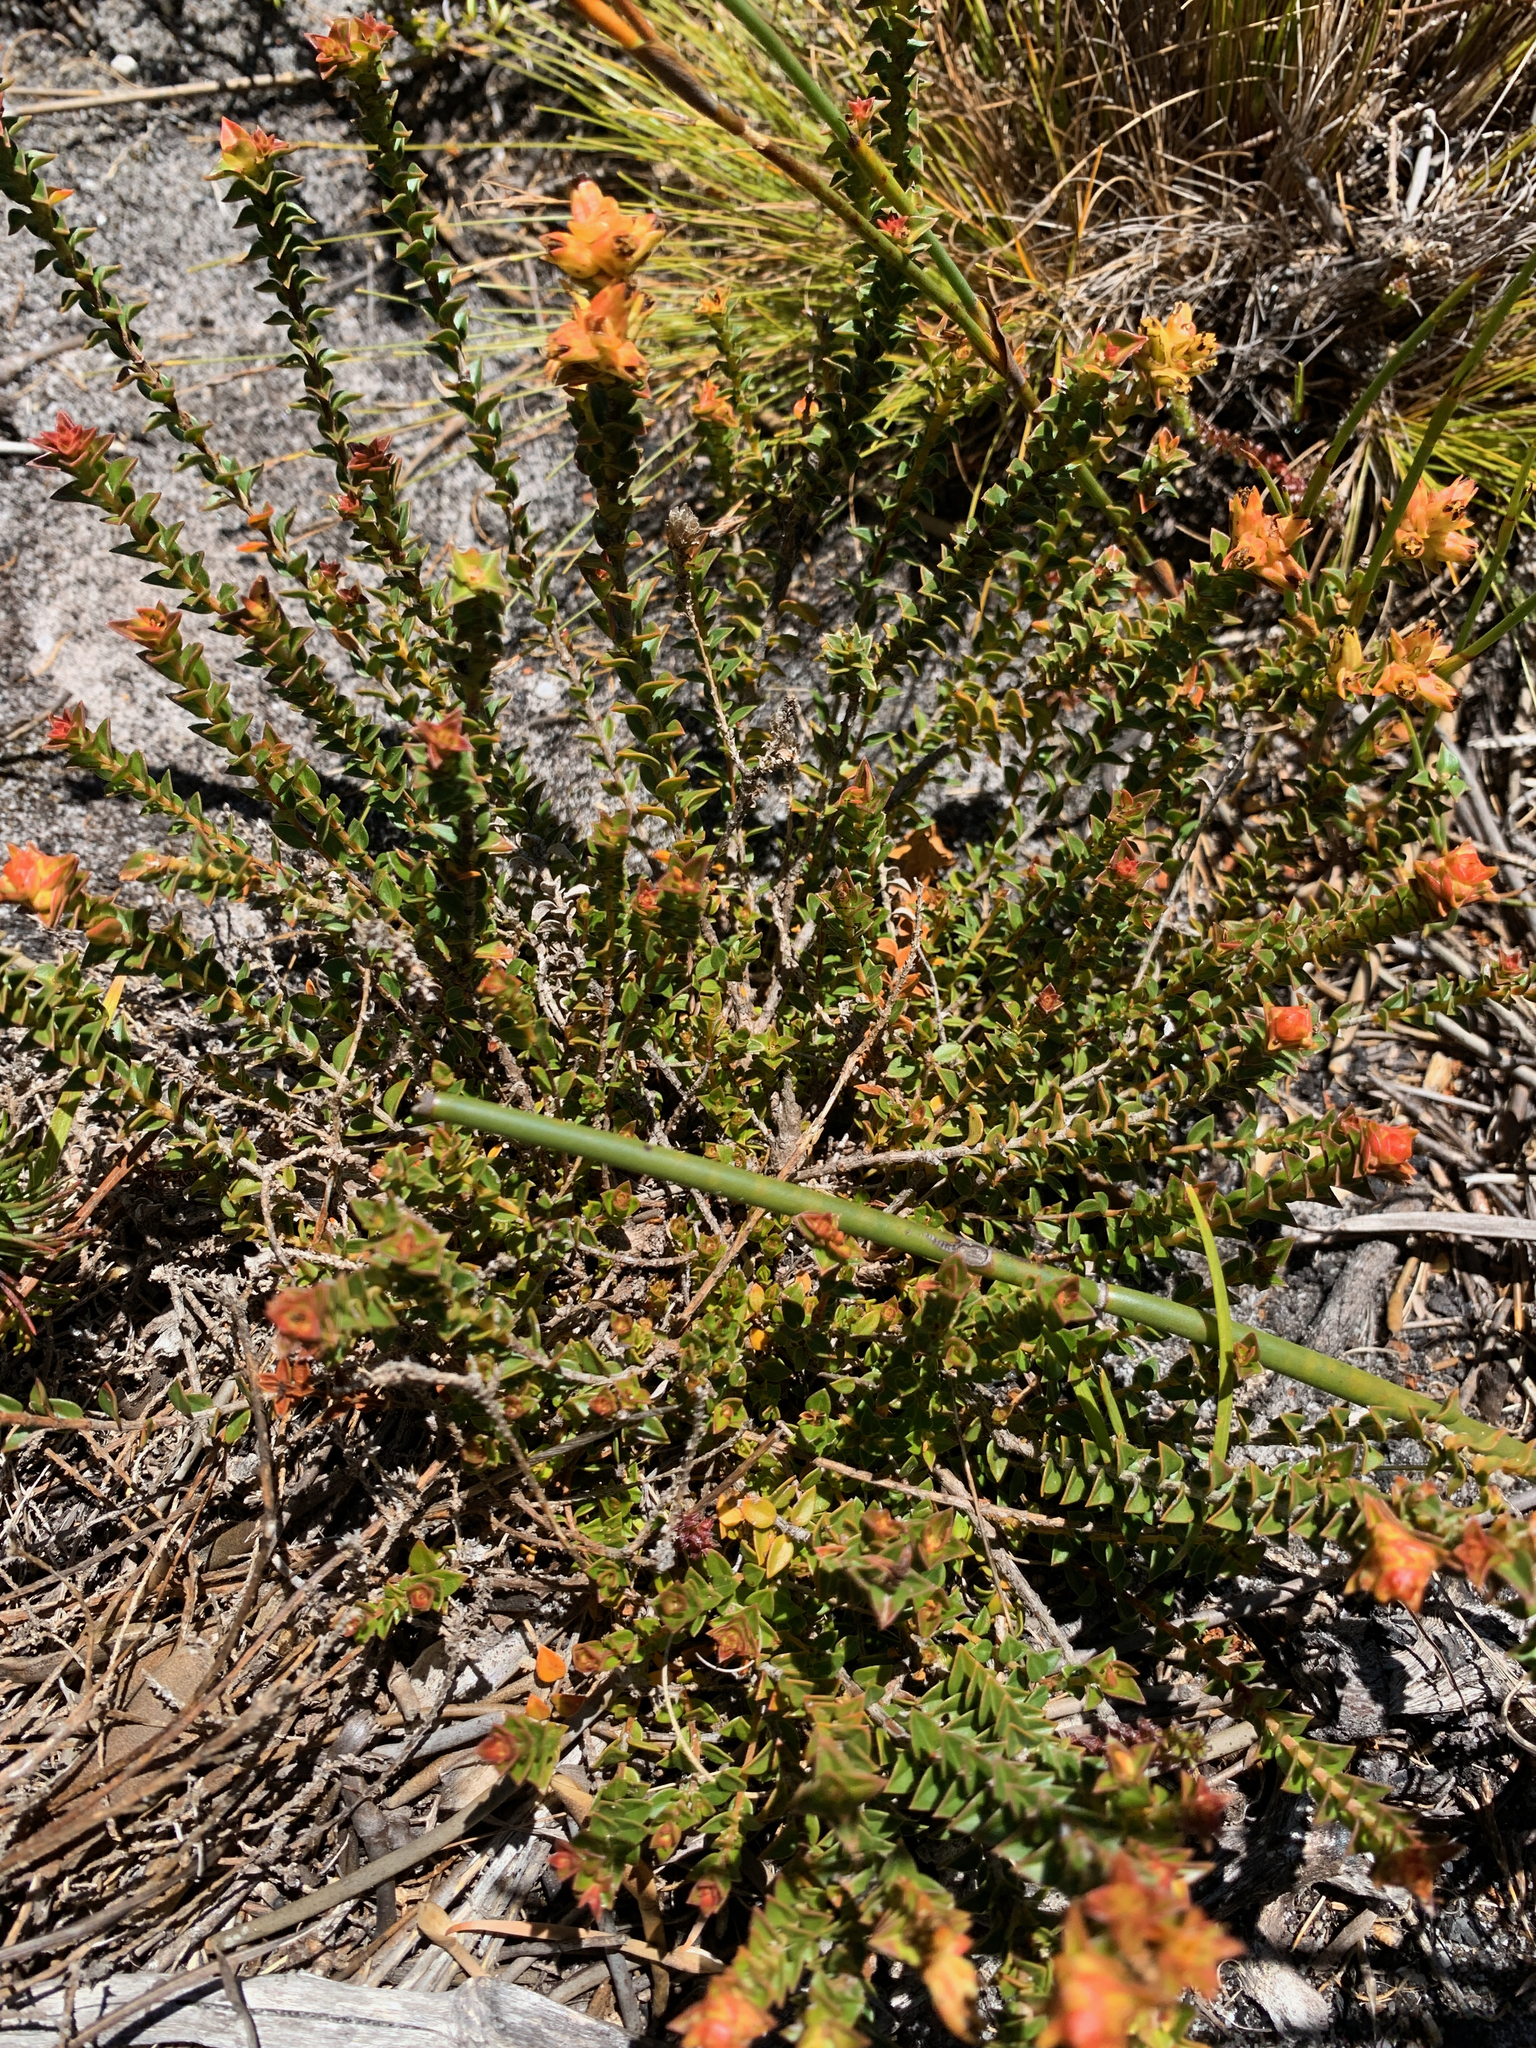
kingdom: Plantae
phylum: Tracheophyta
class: Magnoliopsida
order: Myrtales
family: Penaeaceae
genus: Penaea
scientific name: Penaea mucronata
